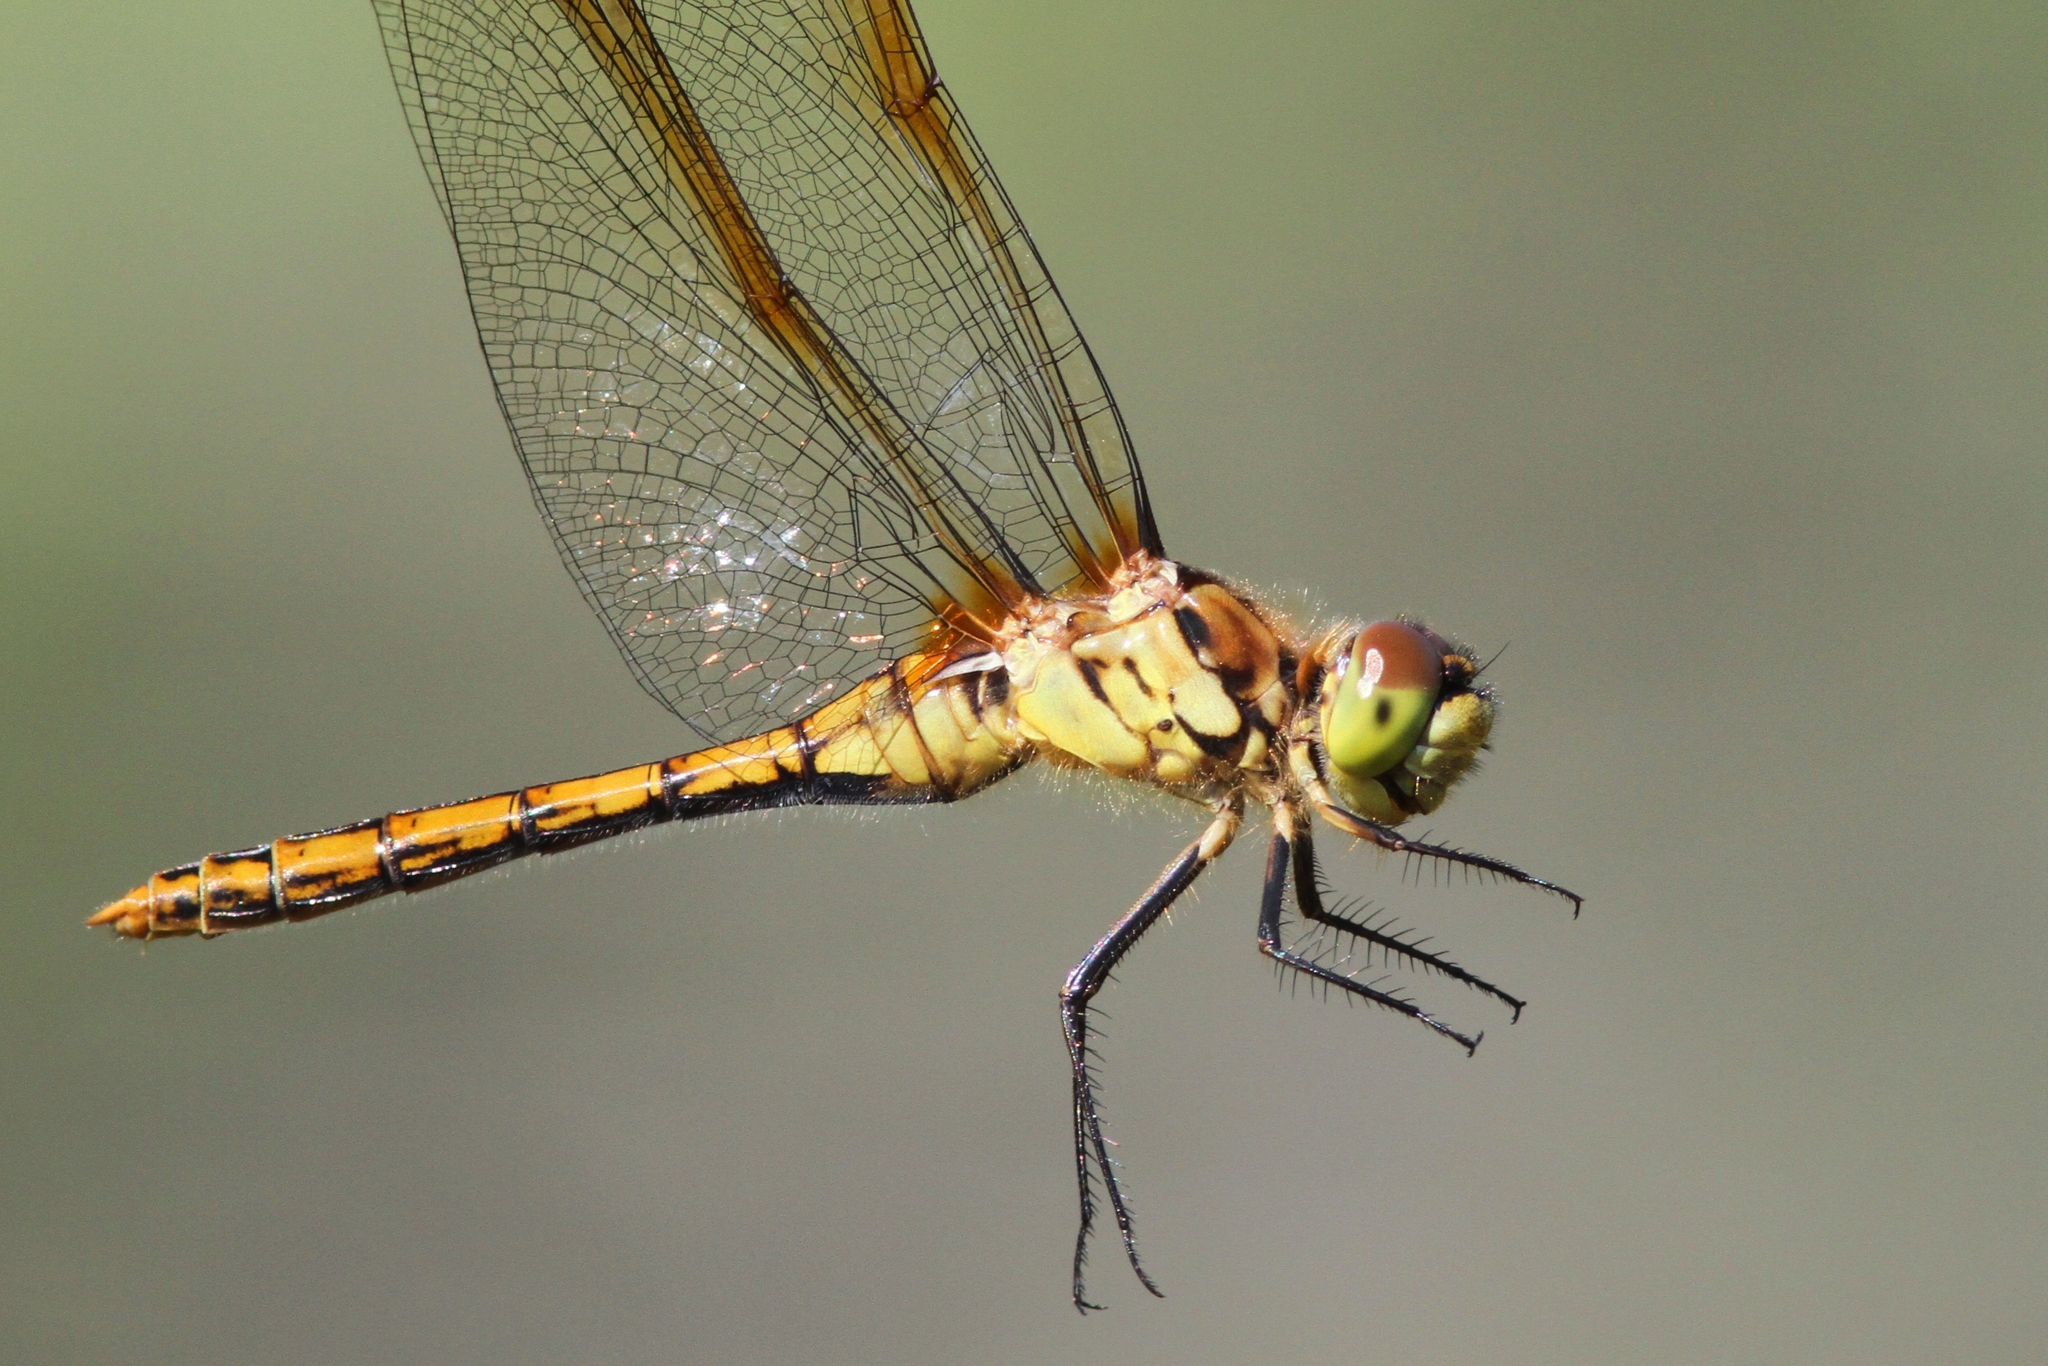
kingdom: Animalia
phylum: Arthropoda
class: Insecta
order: Odonata
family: Libellulidae
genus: Sympetrum
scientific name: Sympetrum costiferum
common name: Saffron-winged meadowhawk
